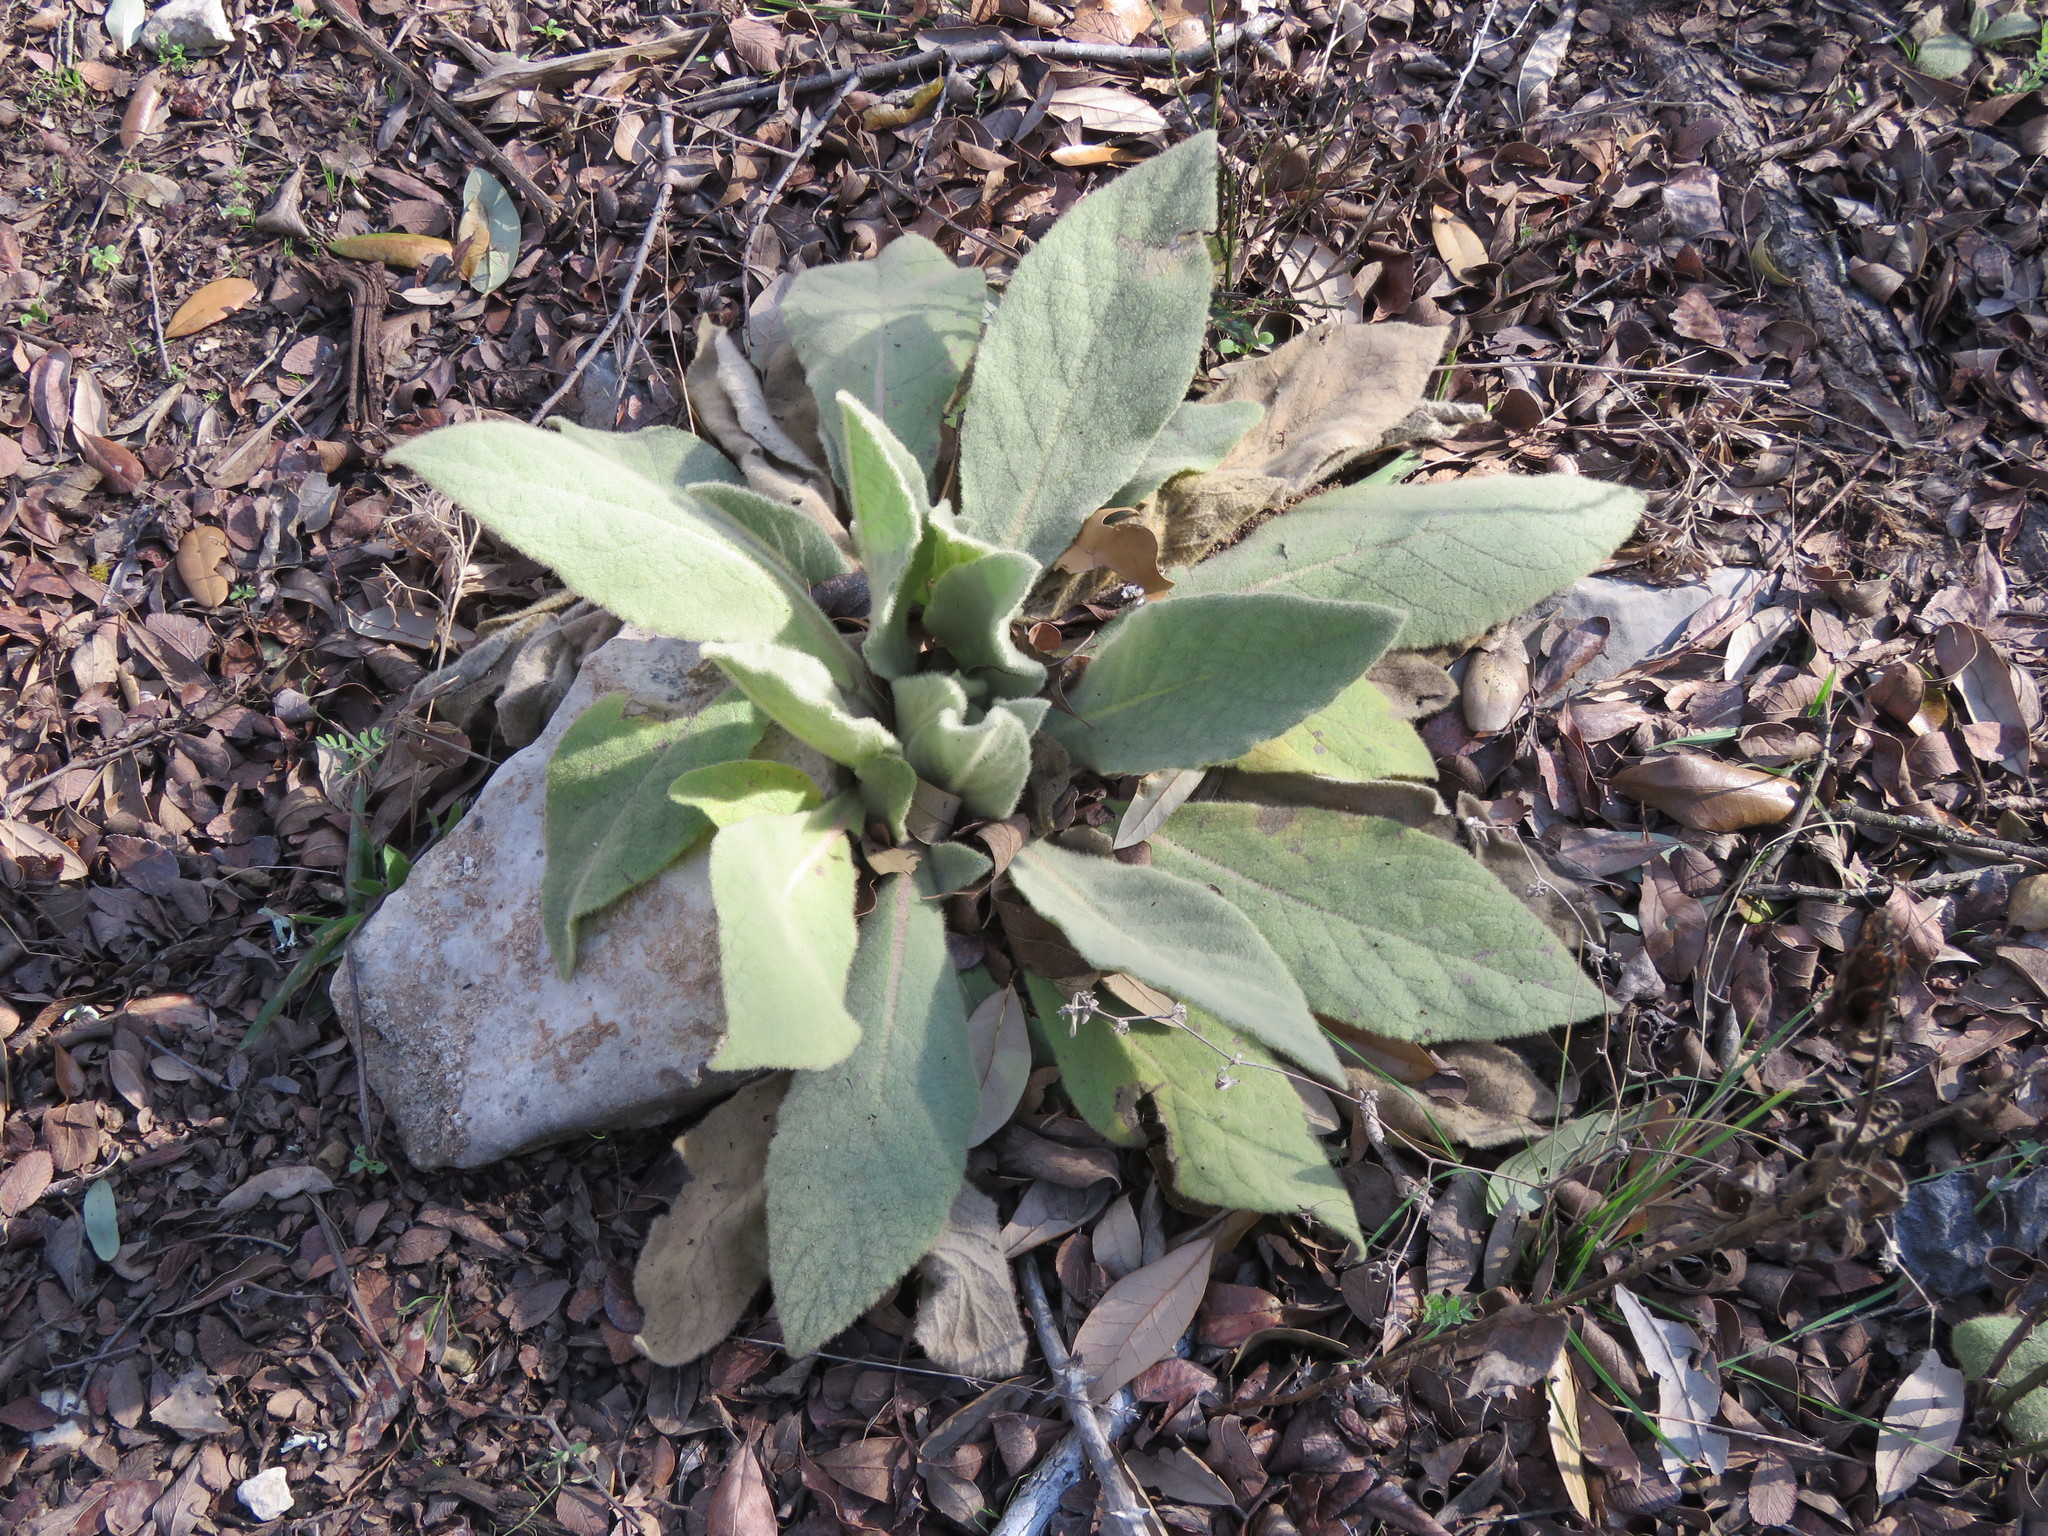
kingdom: Plantae
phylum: Tracheophyta
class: Magnoliopsida
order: Lamiales
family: Scrophulariaceae
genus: Verbascum
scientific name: Verbascum thapsus
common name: Common mullein
